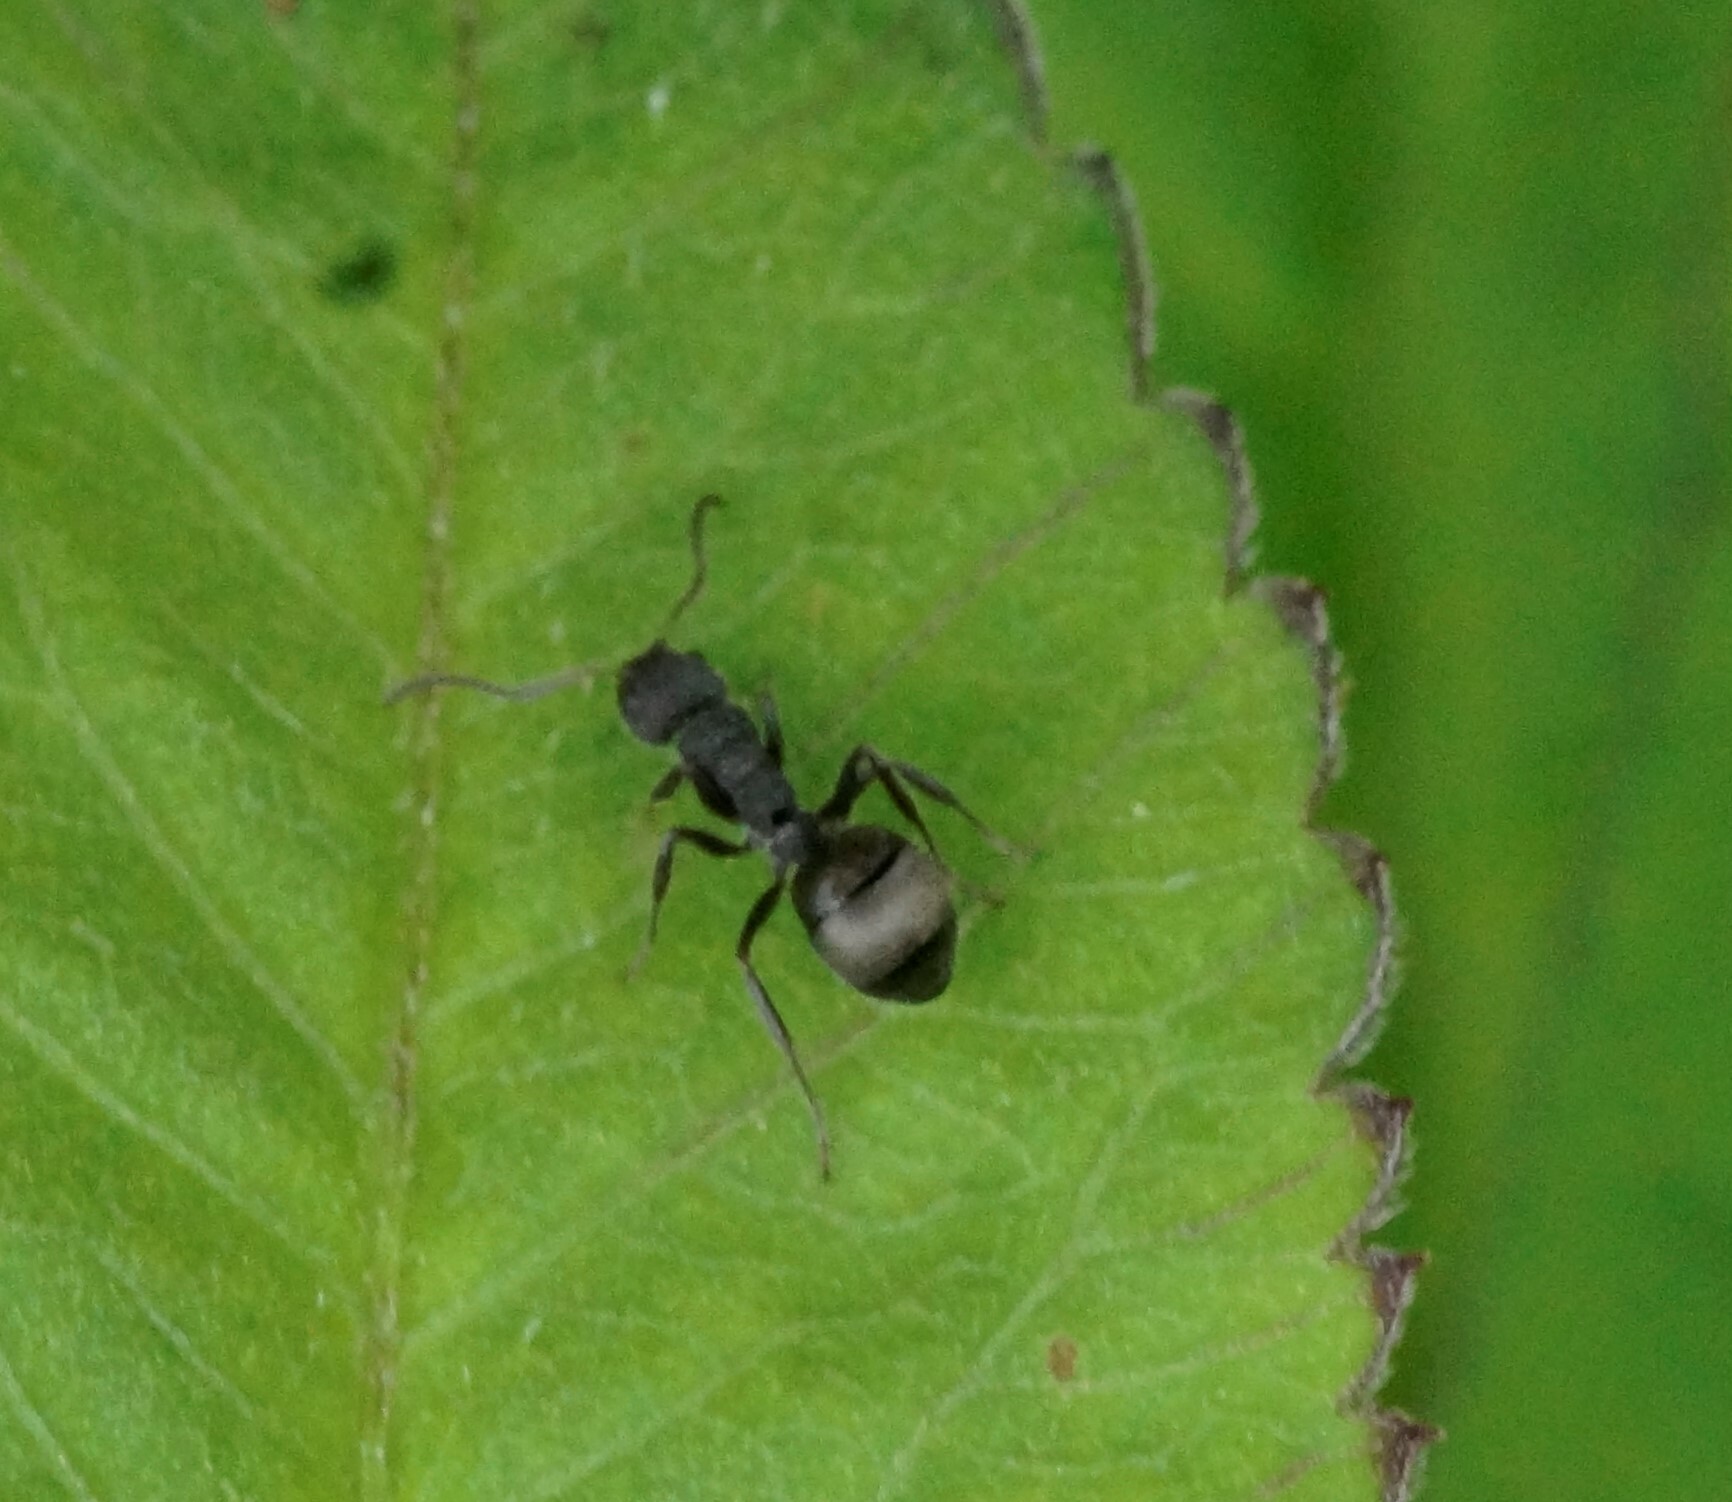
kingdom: Animalia
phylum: Arthropoda
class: Insecta
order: Hymenoptera
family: Formicidae
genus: Dolichoderus
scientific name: Dolichoderus scrobiculatus
